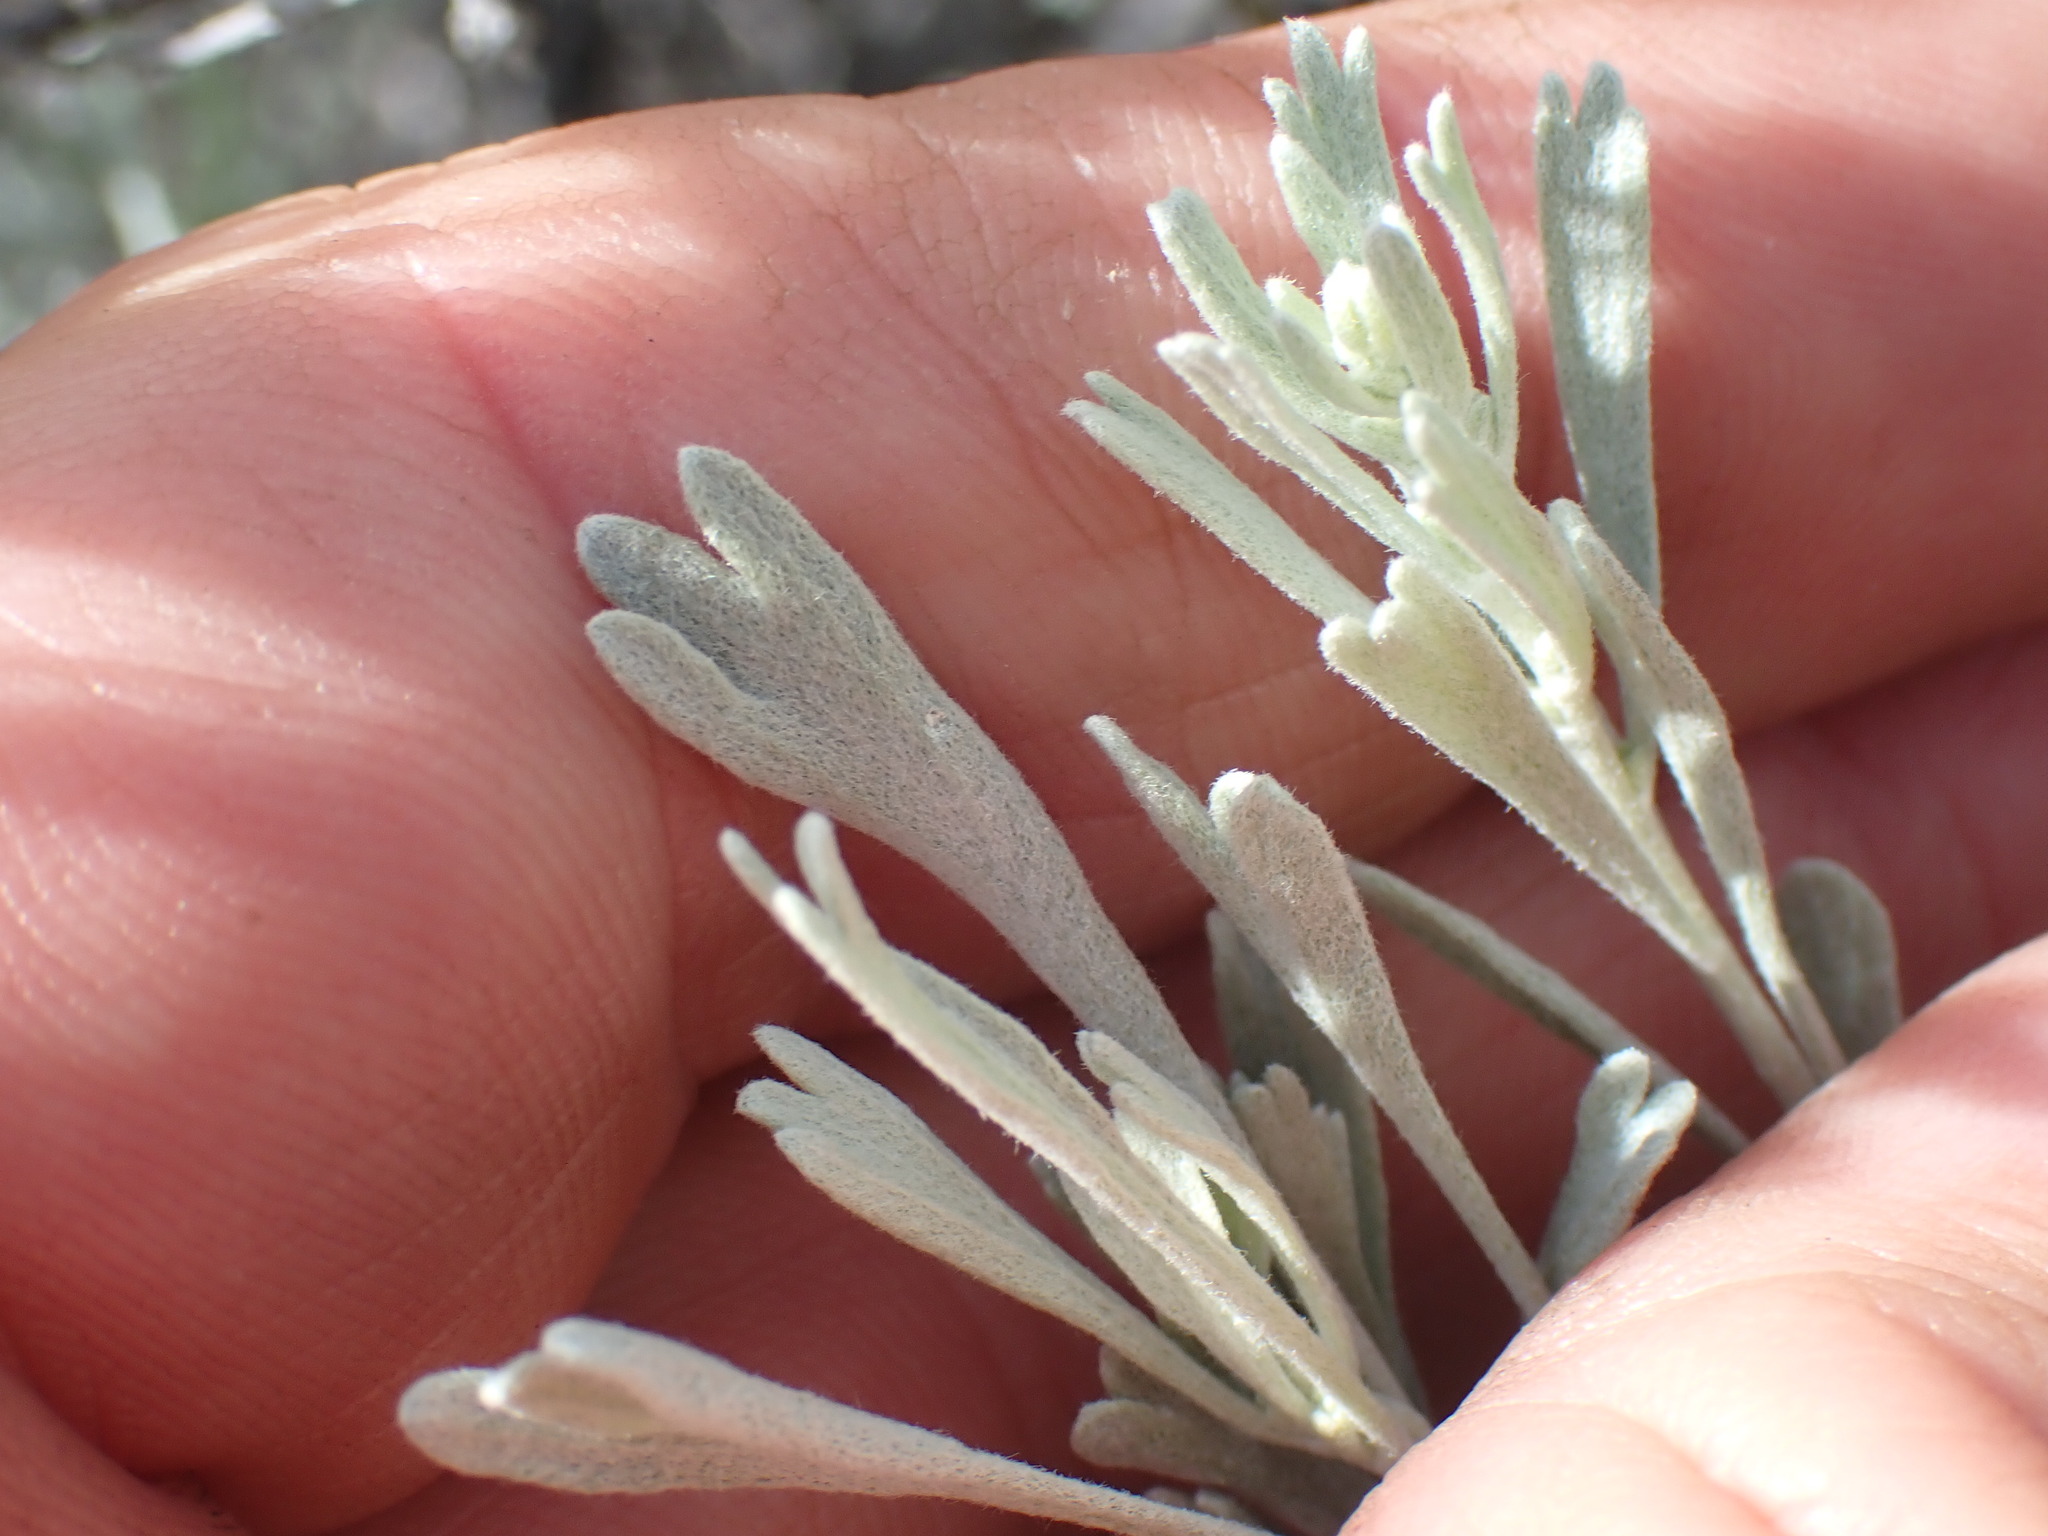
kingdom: Plantae
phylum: Tracheophyta
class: Magnoliopsida
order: Asterales
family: Asteraceae
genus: Artemisia
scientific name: Artemisia tridentata
